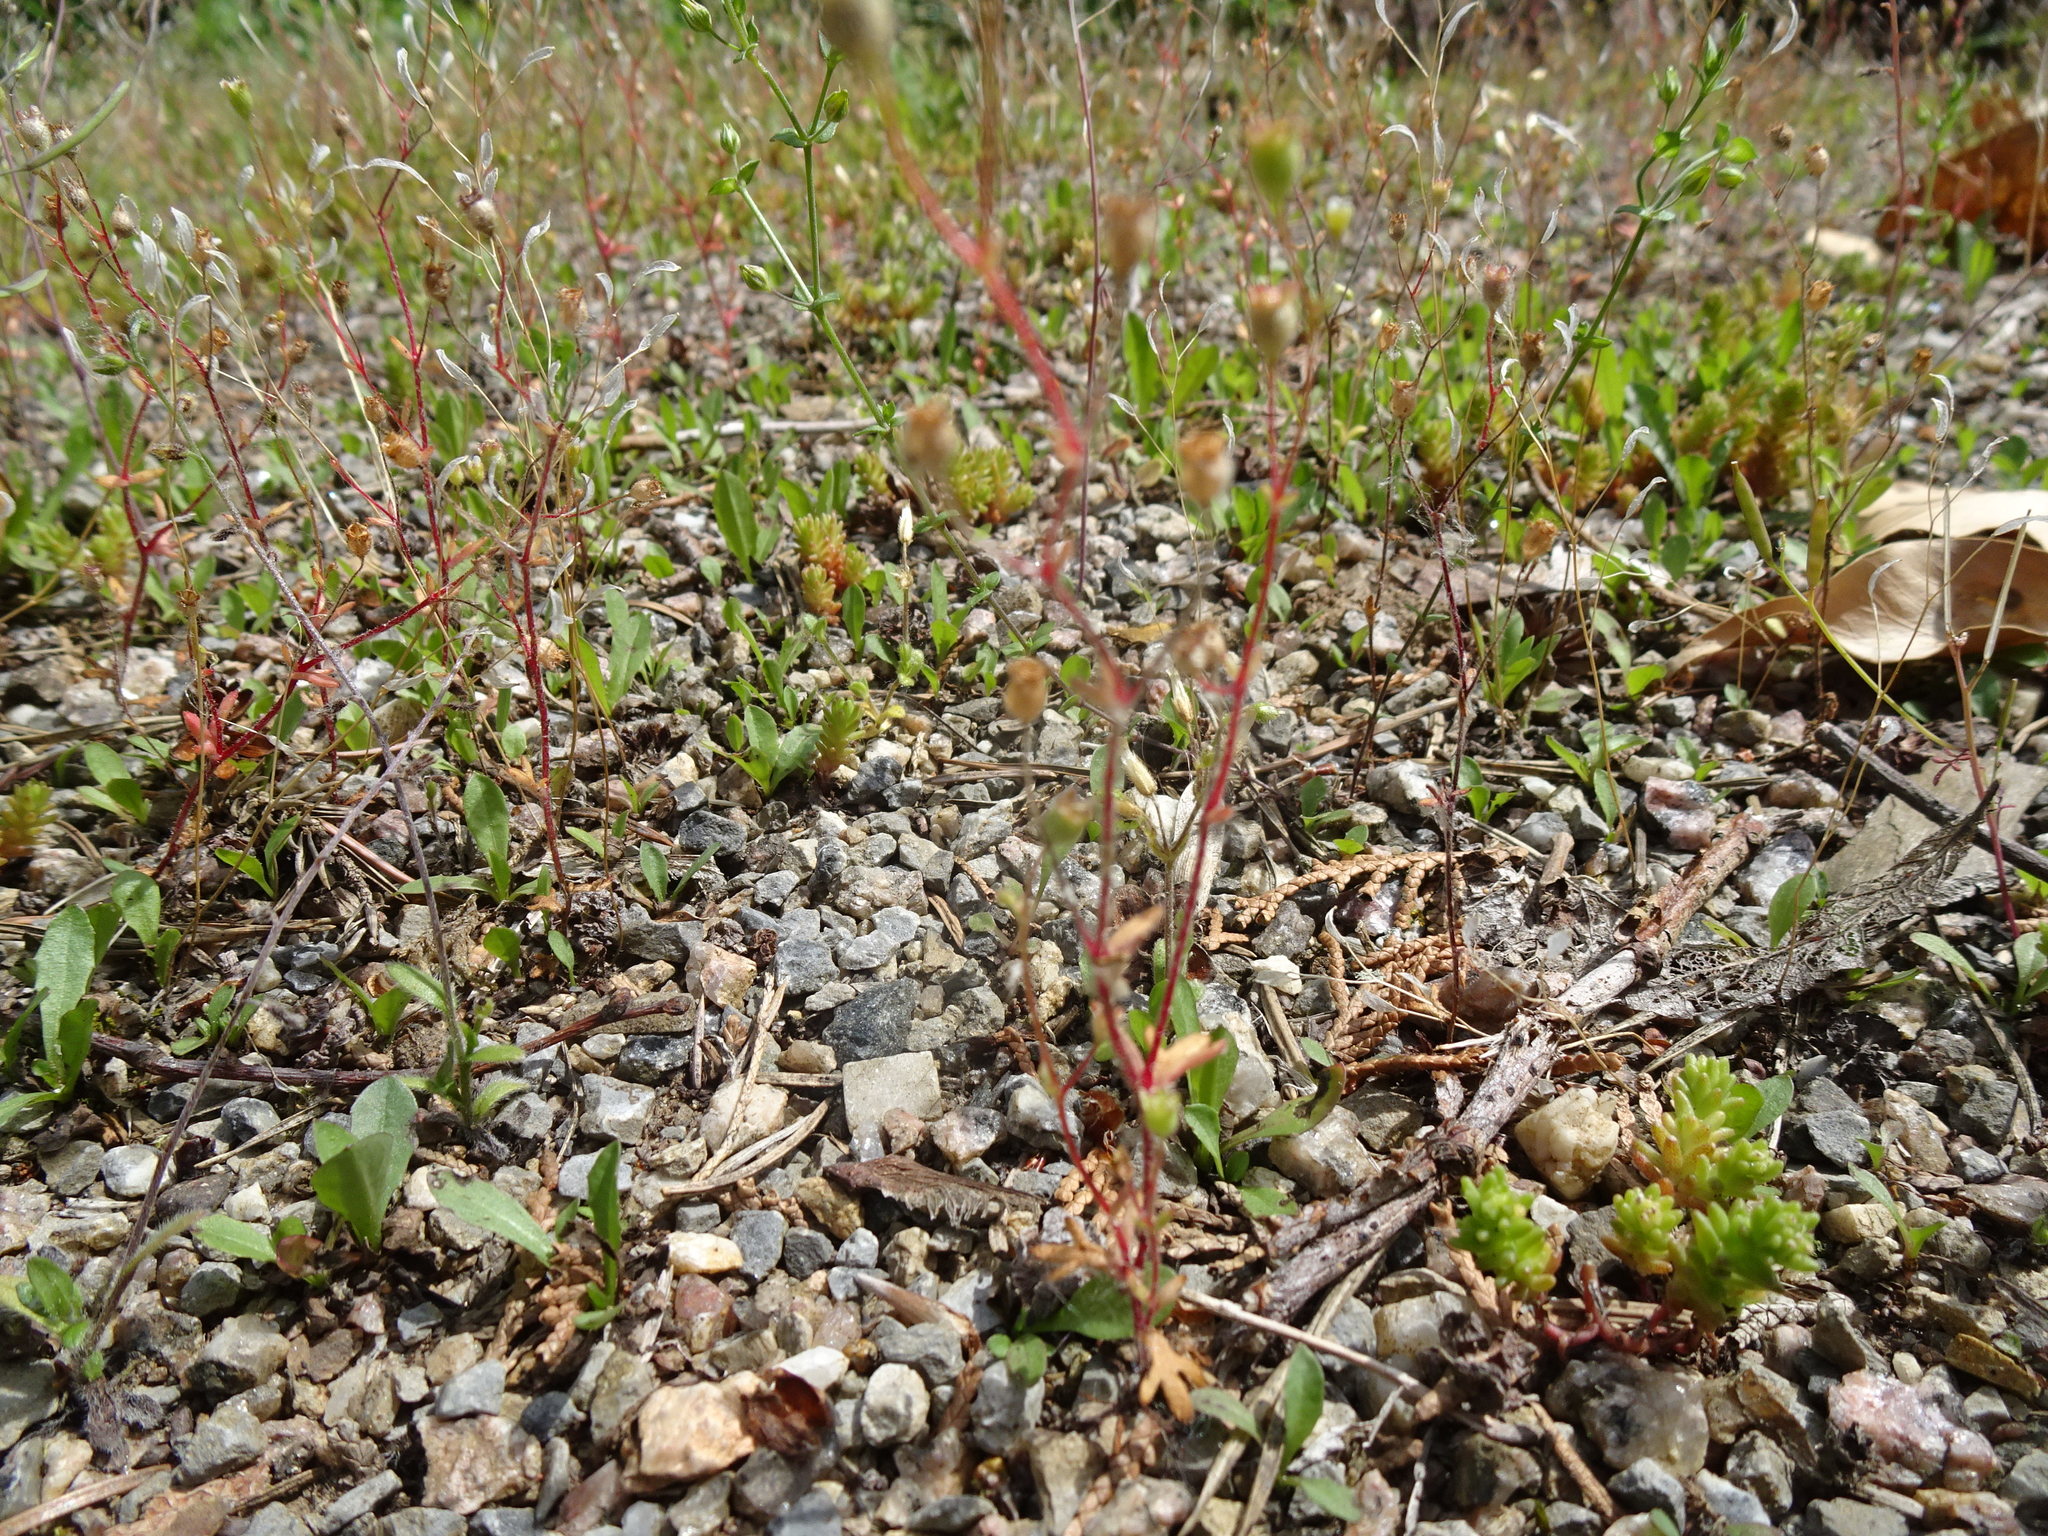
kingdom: Plantae
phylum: Tracheophyta
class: Magnoliopsida
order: Saxifragales
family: Saxifragaceae
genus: Saxifraga
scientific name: Saxifraga tridactylites
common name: Rue-leaved saxifrage
